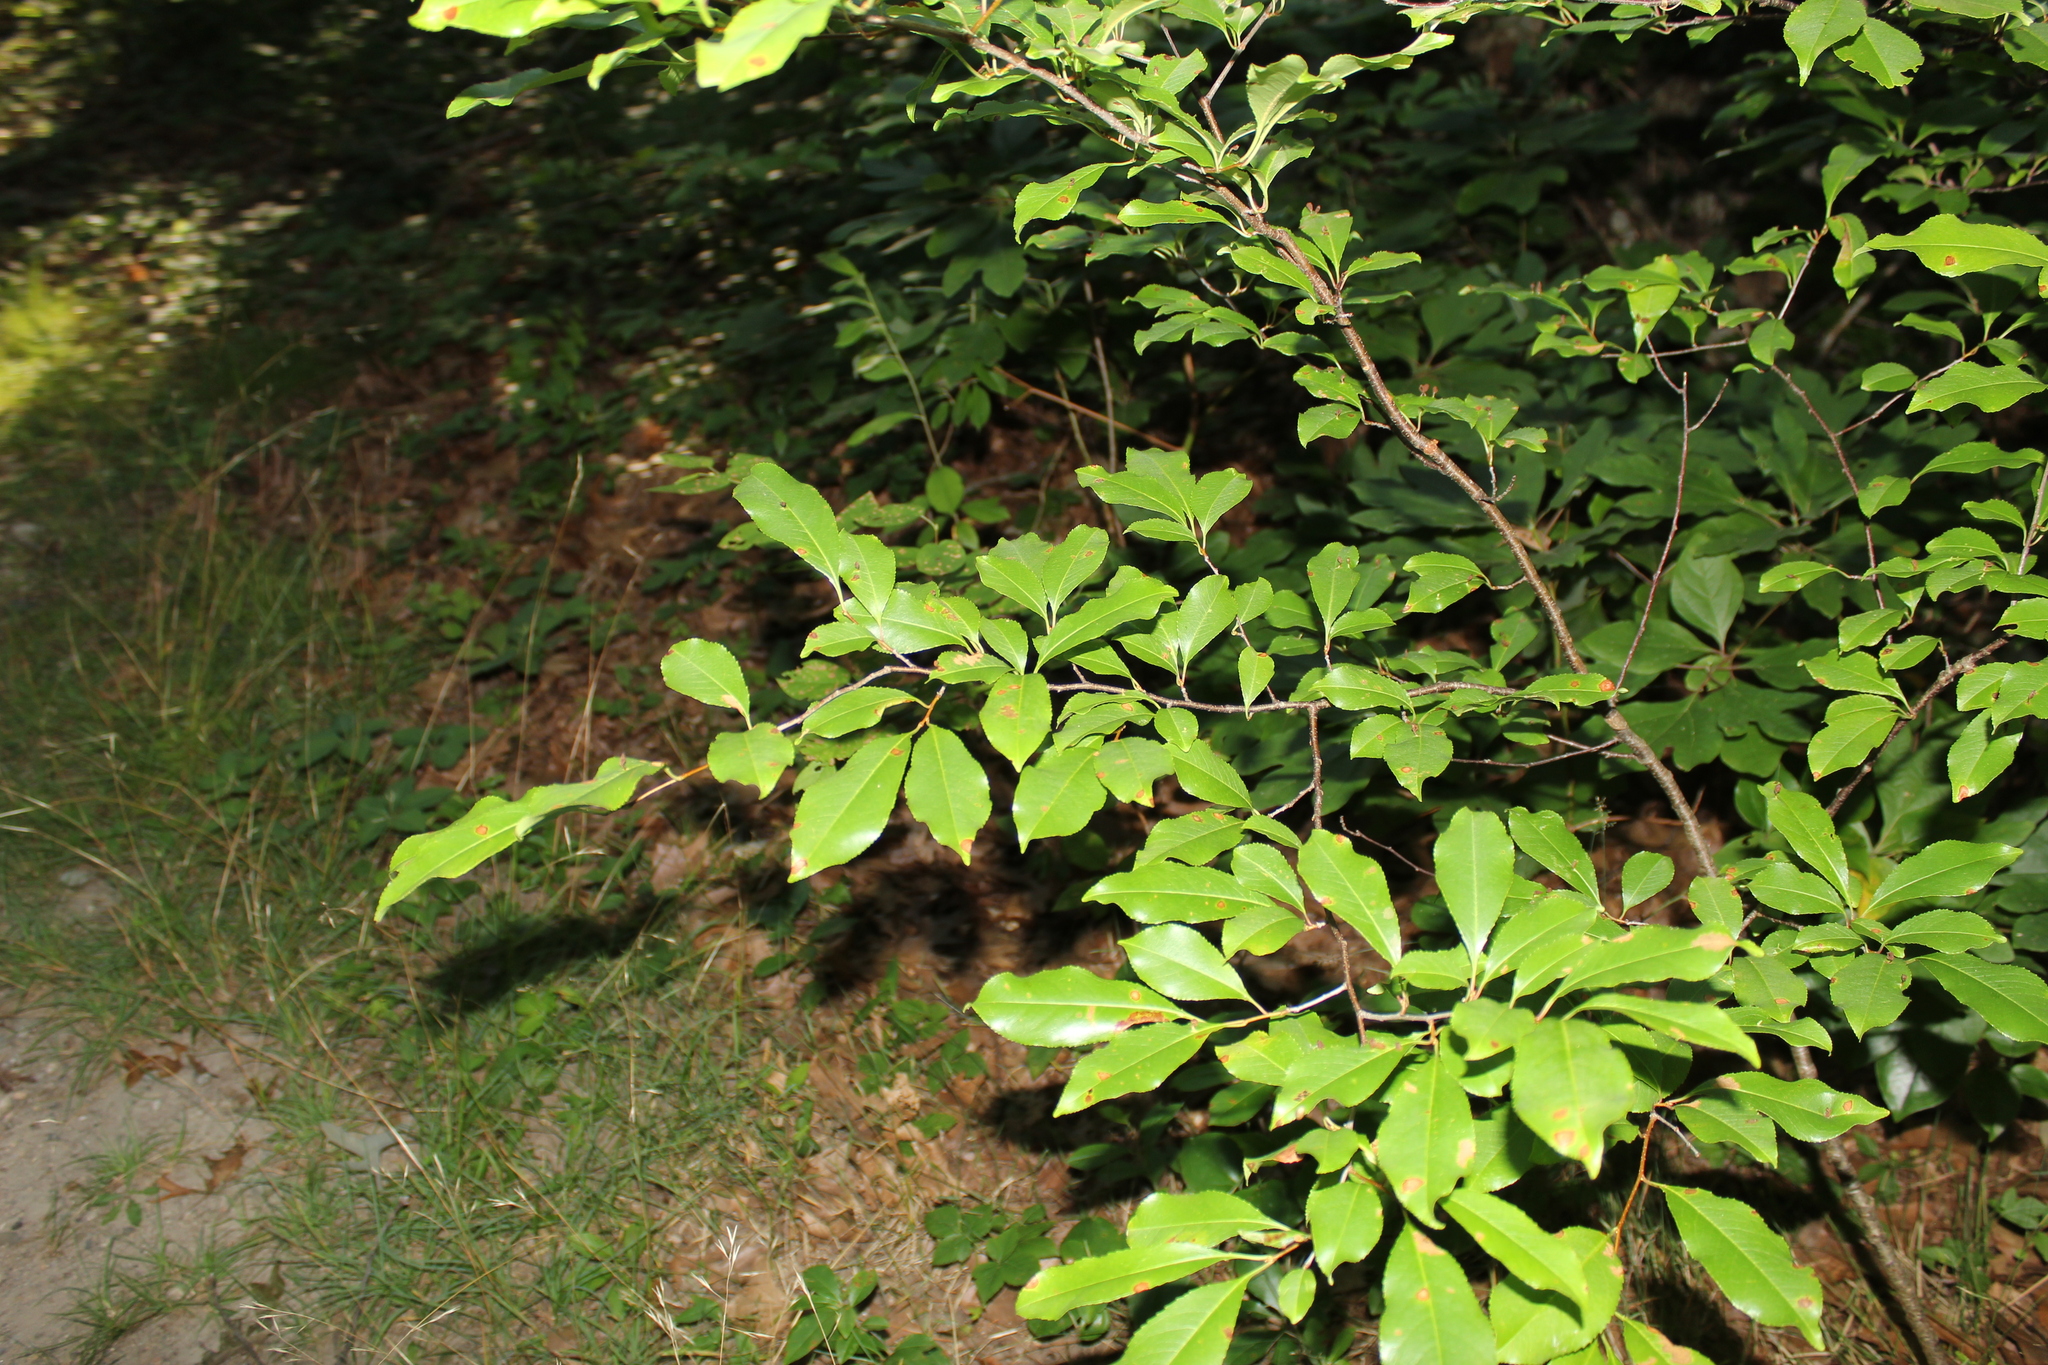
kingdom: Plantae
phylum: Tracheophyta
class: Magnoliopsida
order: Rosales
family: Rosaceae
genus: Prunus
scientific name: Prunus serotina
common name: Black cherry
